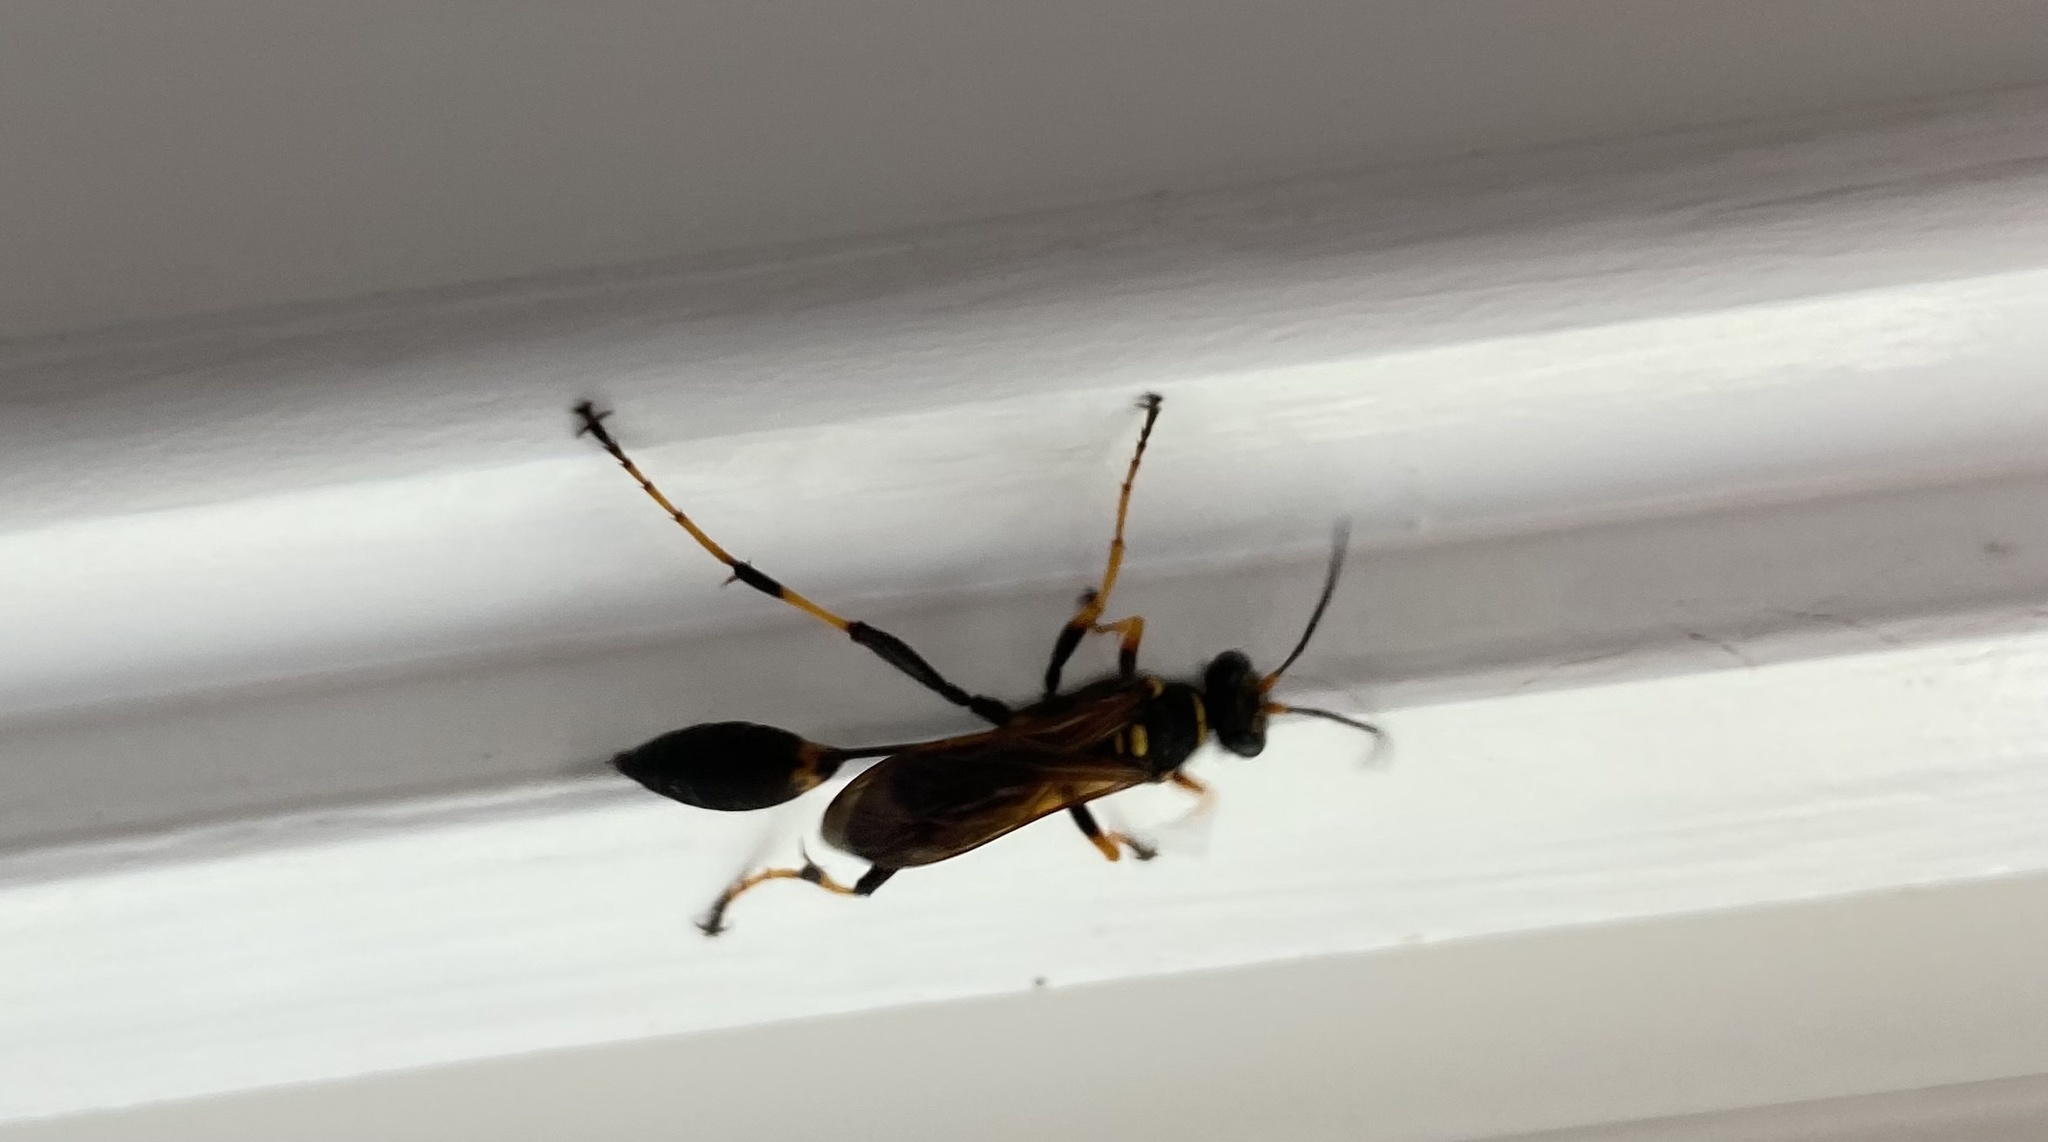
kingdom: Animalia
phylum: Arthropoda
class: Insecta
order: Hymenoptera
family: Sphecidae
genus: Sceliphron
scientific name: Sceliphron caementarium
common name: Mud dauber
